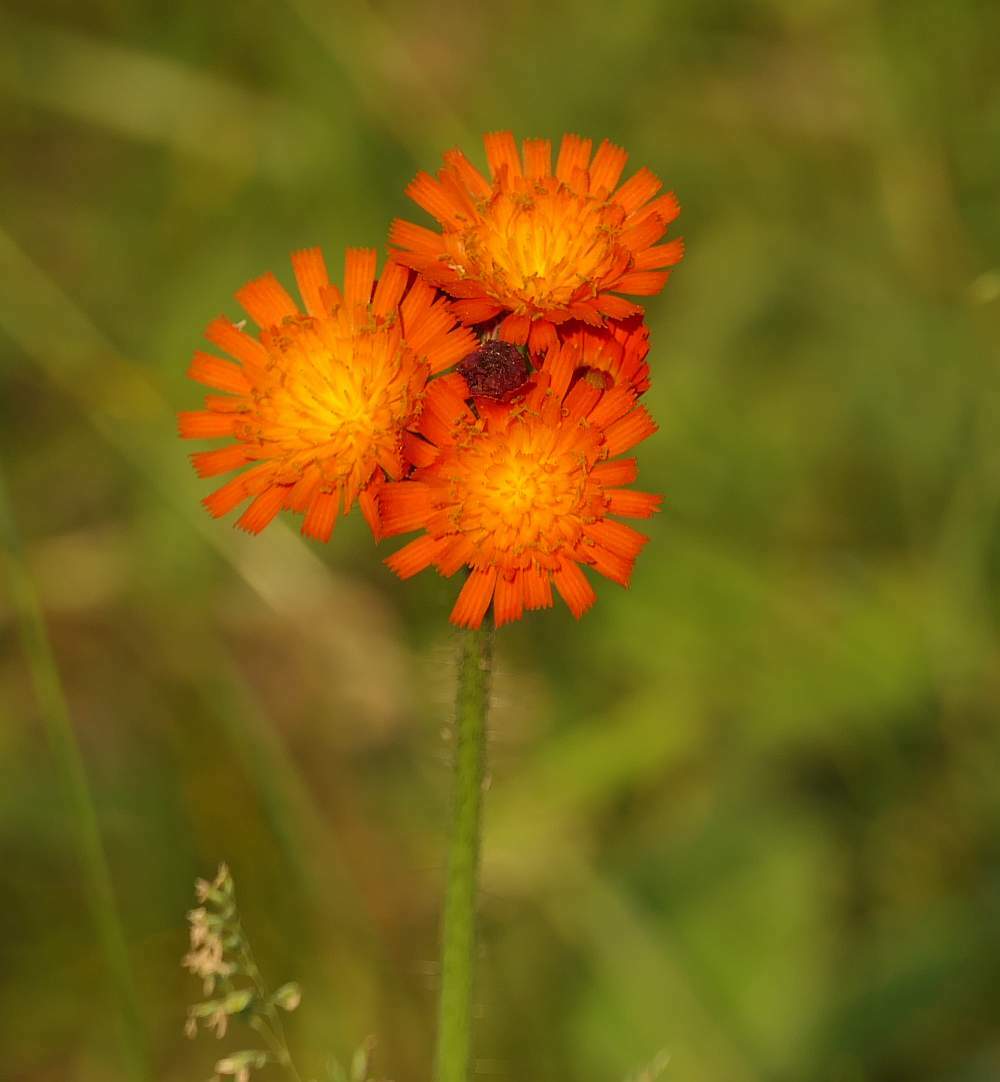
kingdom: Plantae
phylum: Tracheophyta
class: Magnoliopsida
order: Asterales
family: Asteraceae
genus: Pilosella
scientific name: Pilosella aurantiaca
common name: Fox-and-cubs
